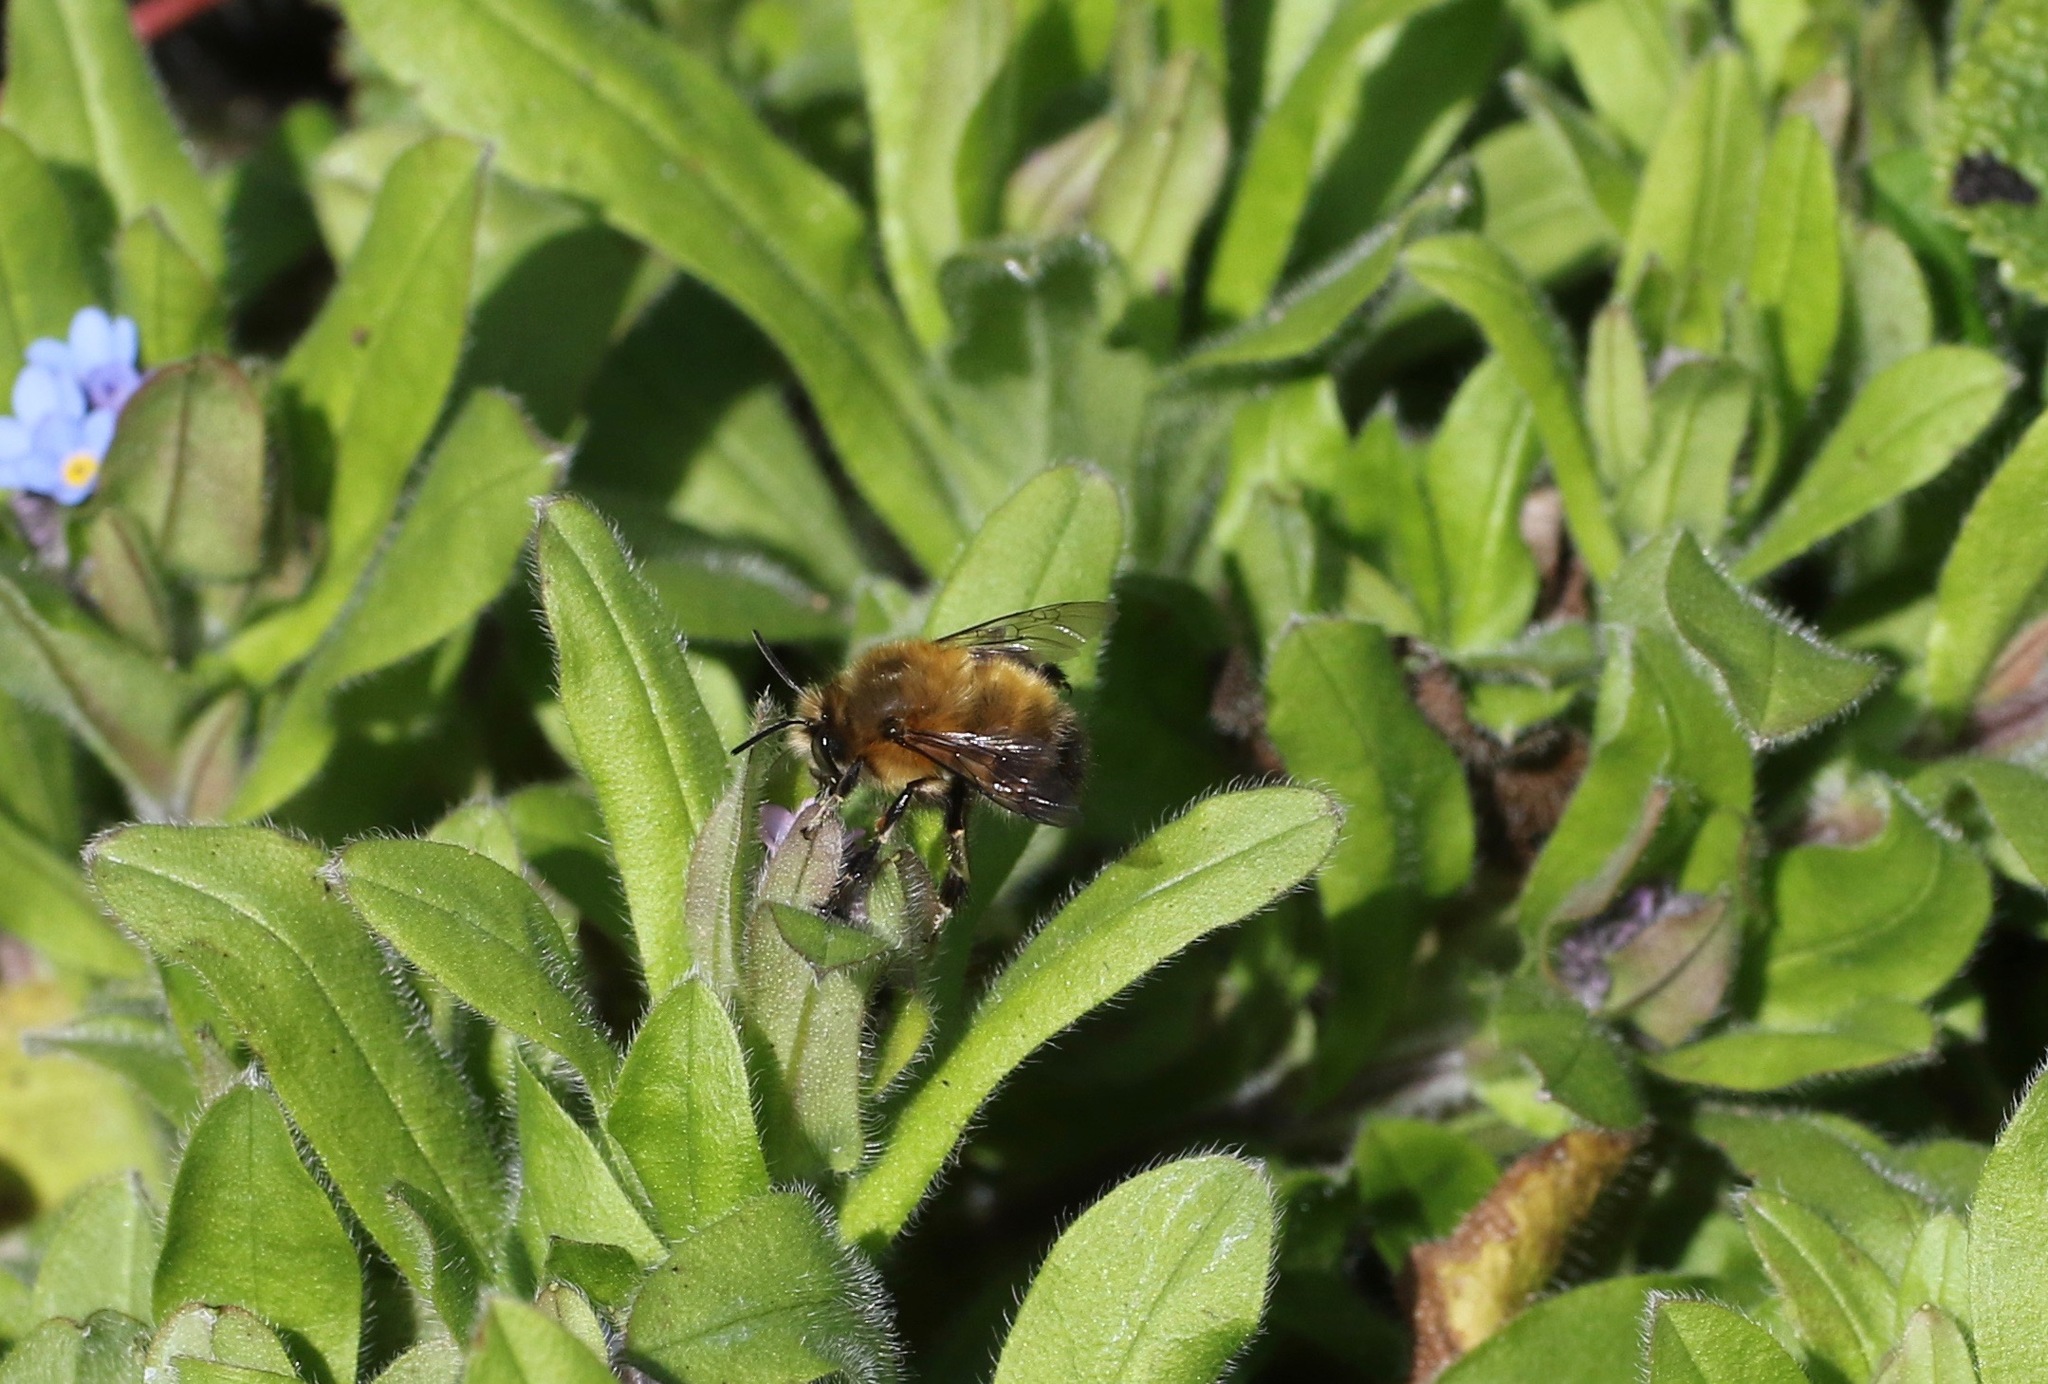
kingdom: Animalia
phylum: Arthropoda
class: Insecta
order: Hymenoptera
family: Apidae
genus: Anthophora
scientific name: Anthophora plumipes
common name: Hairy-footed flower bee
